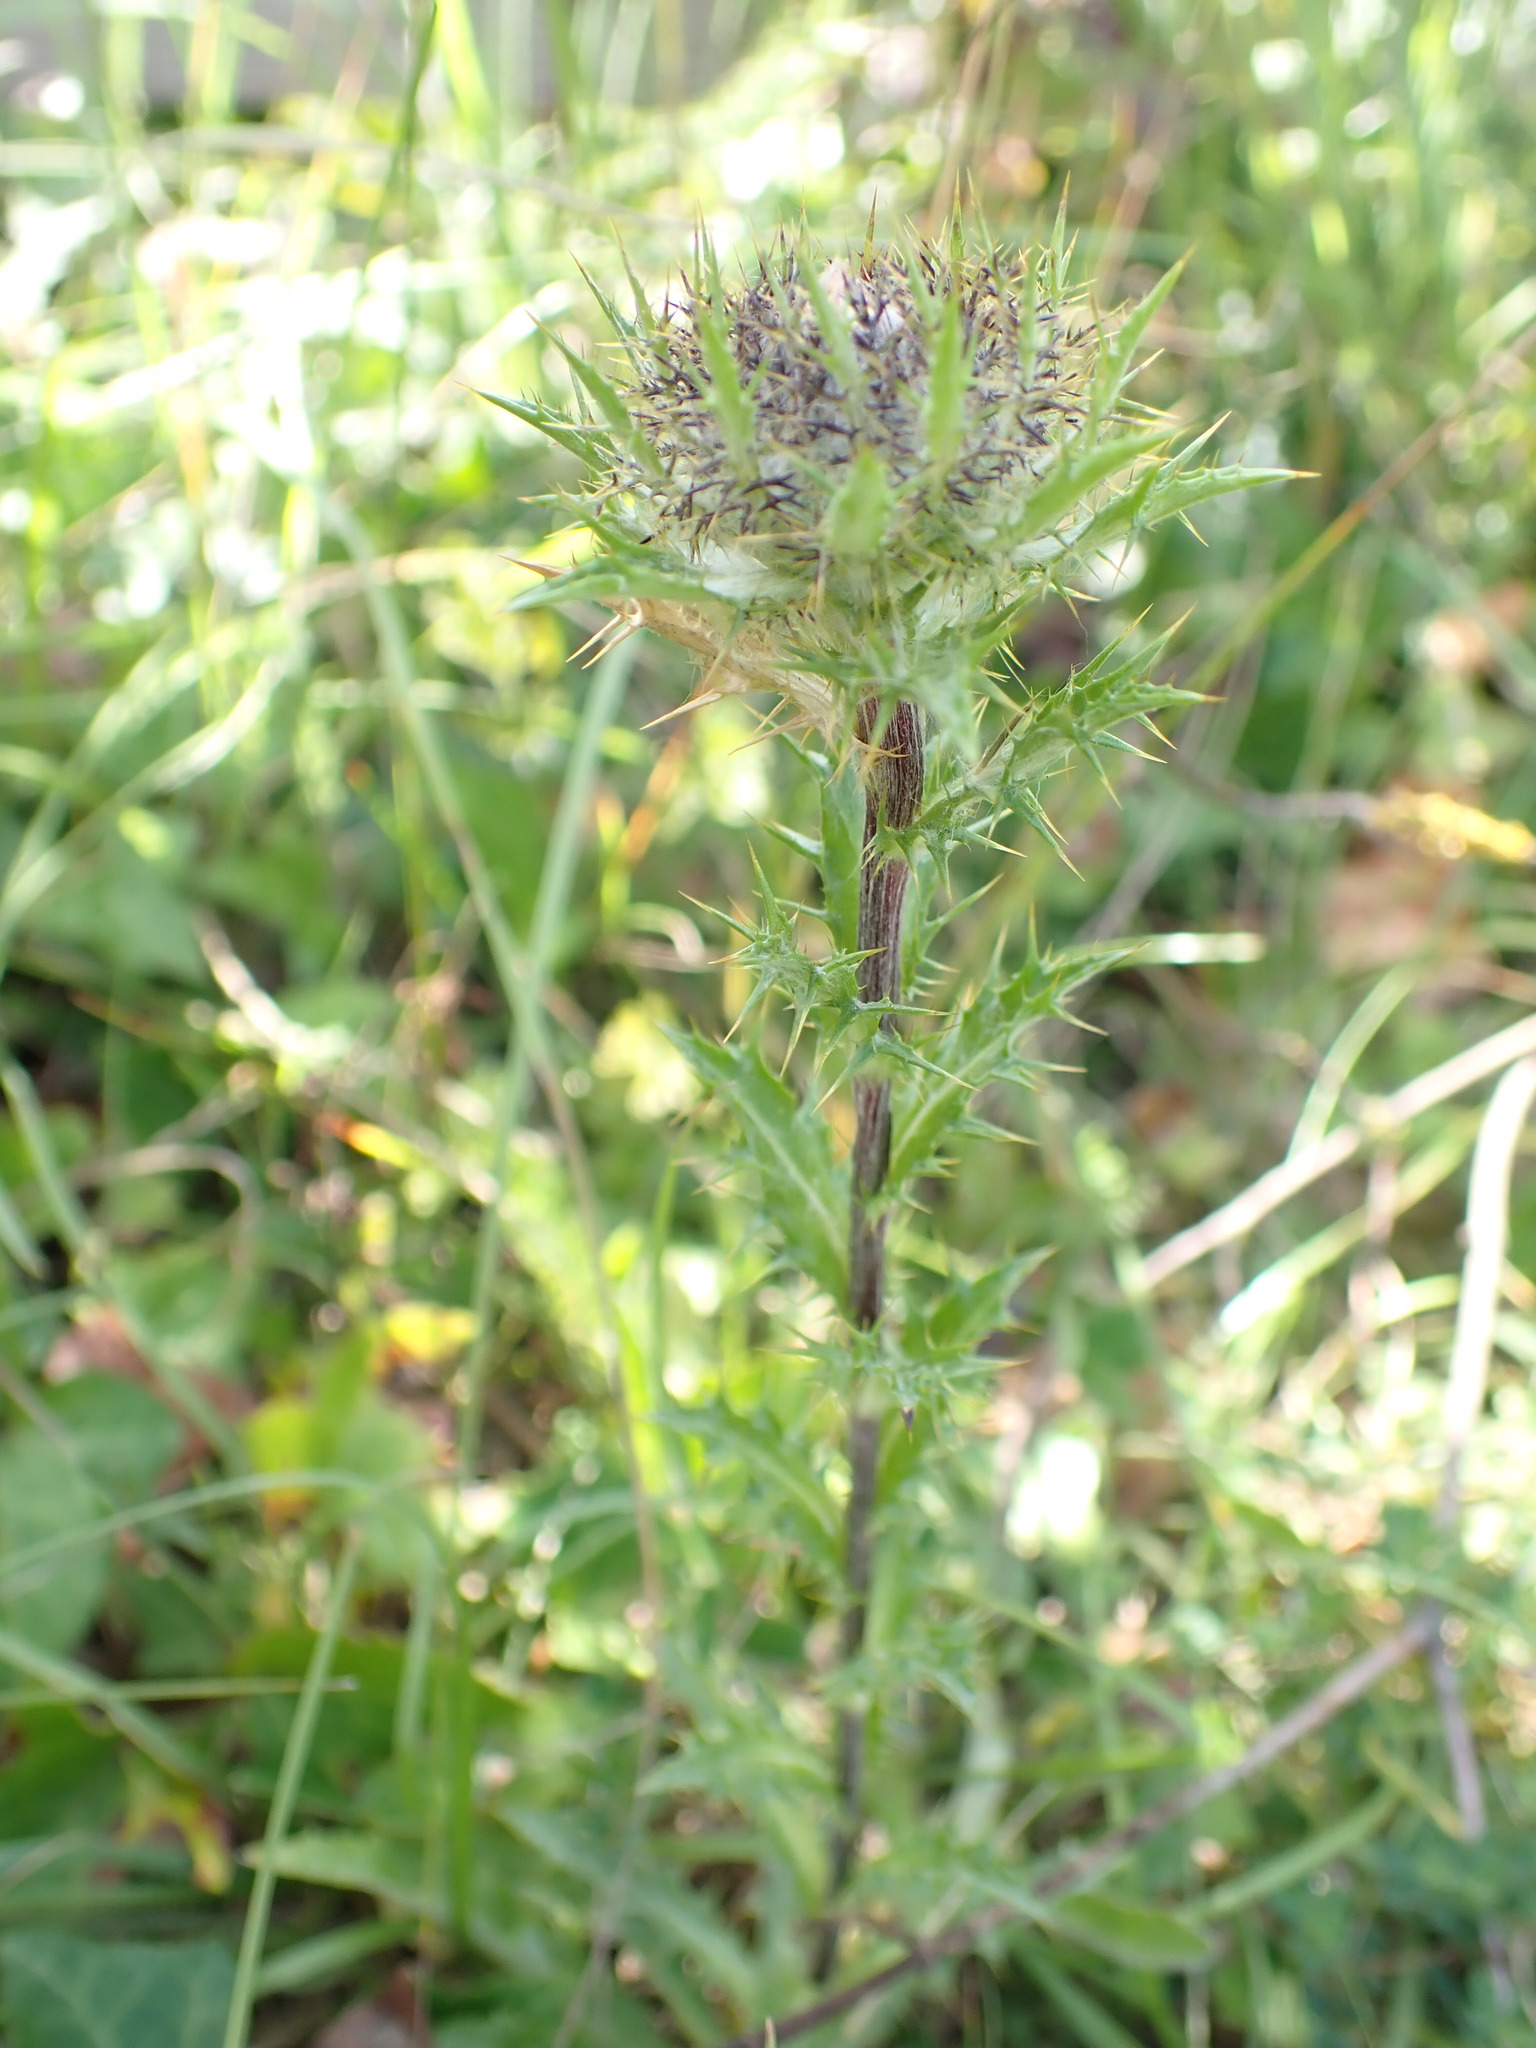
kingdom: Plantae
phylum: Tracheophyta
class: Magnoliopsida
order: Asterales
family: Asteraceae
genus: Carlina
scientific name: Carlina vulgaris
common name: Carline thistle
